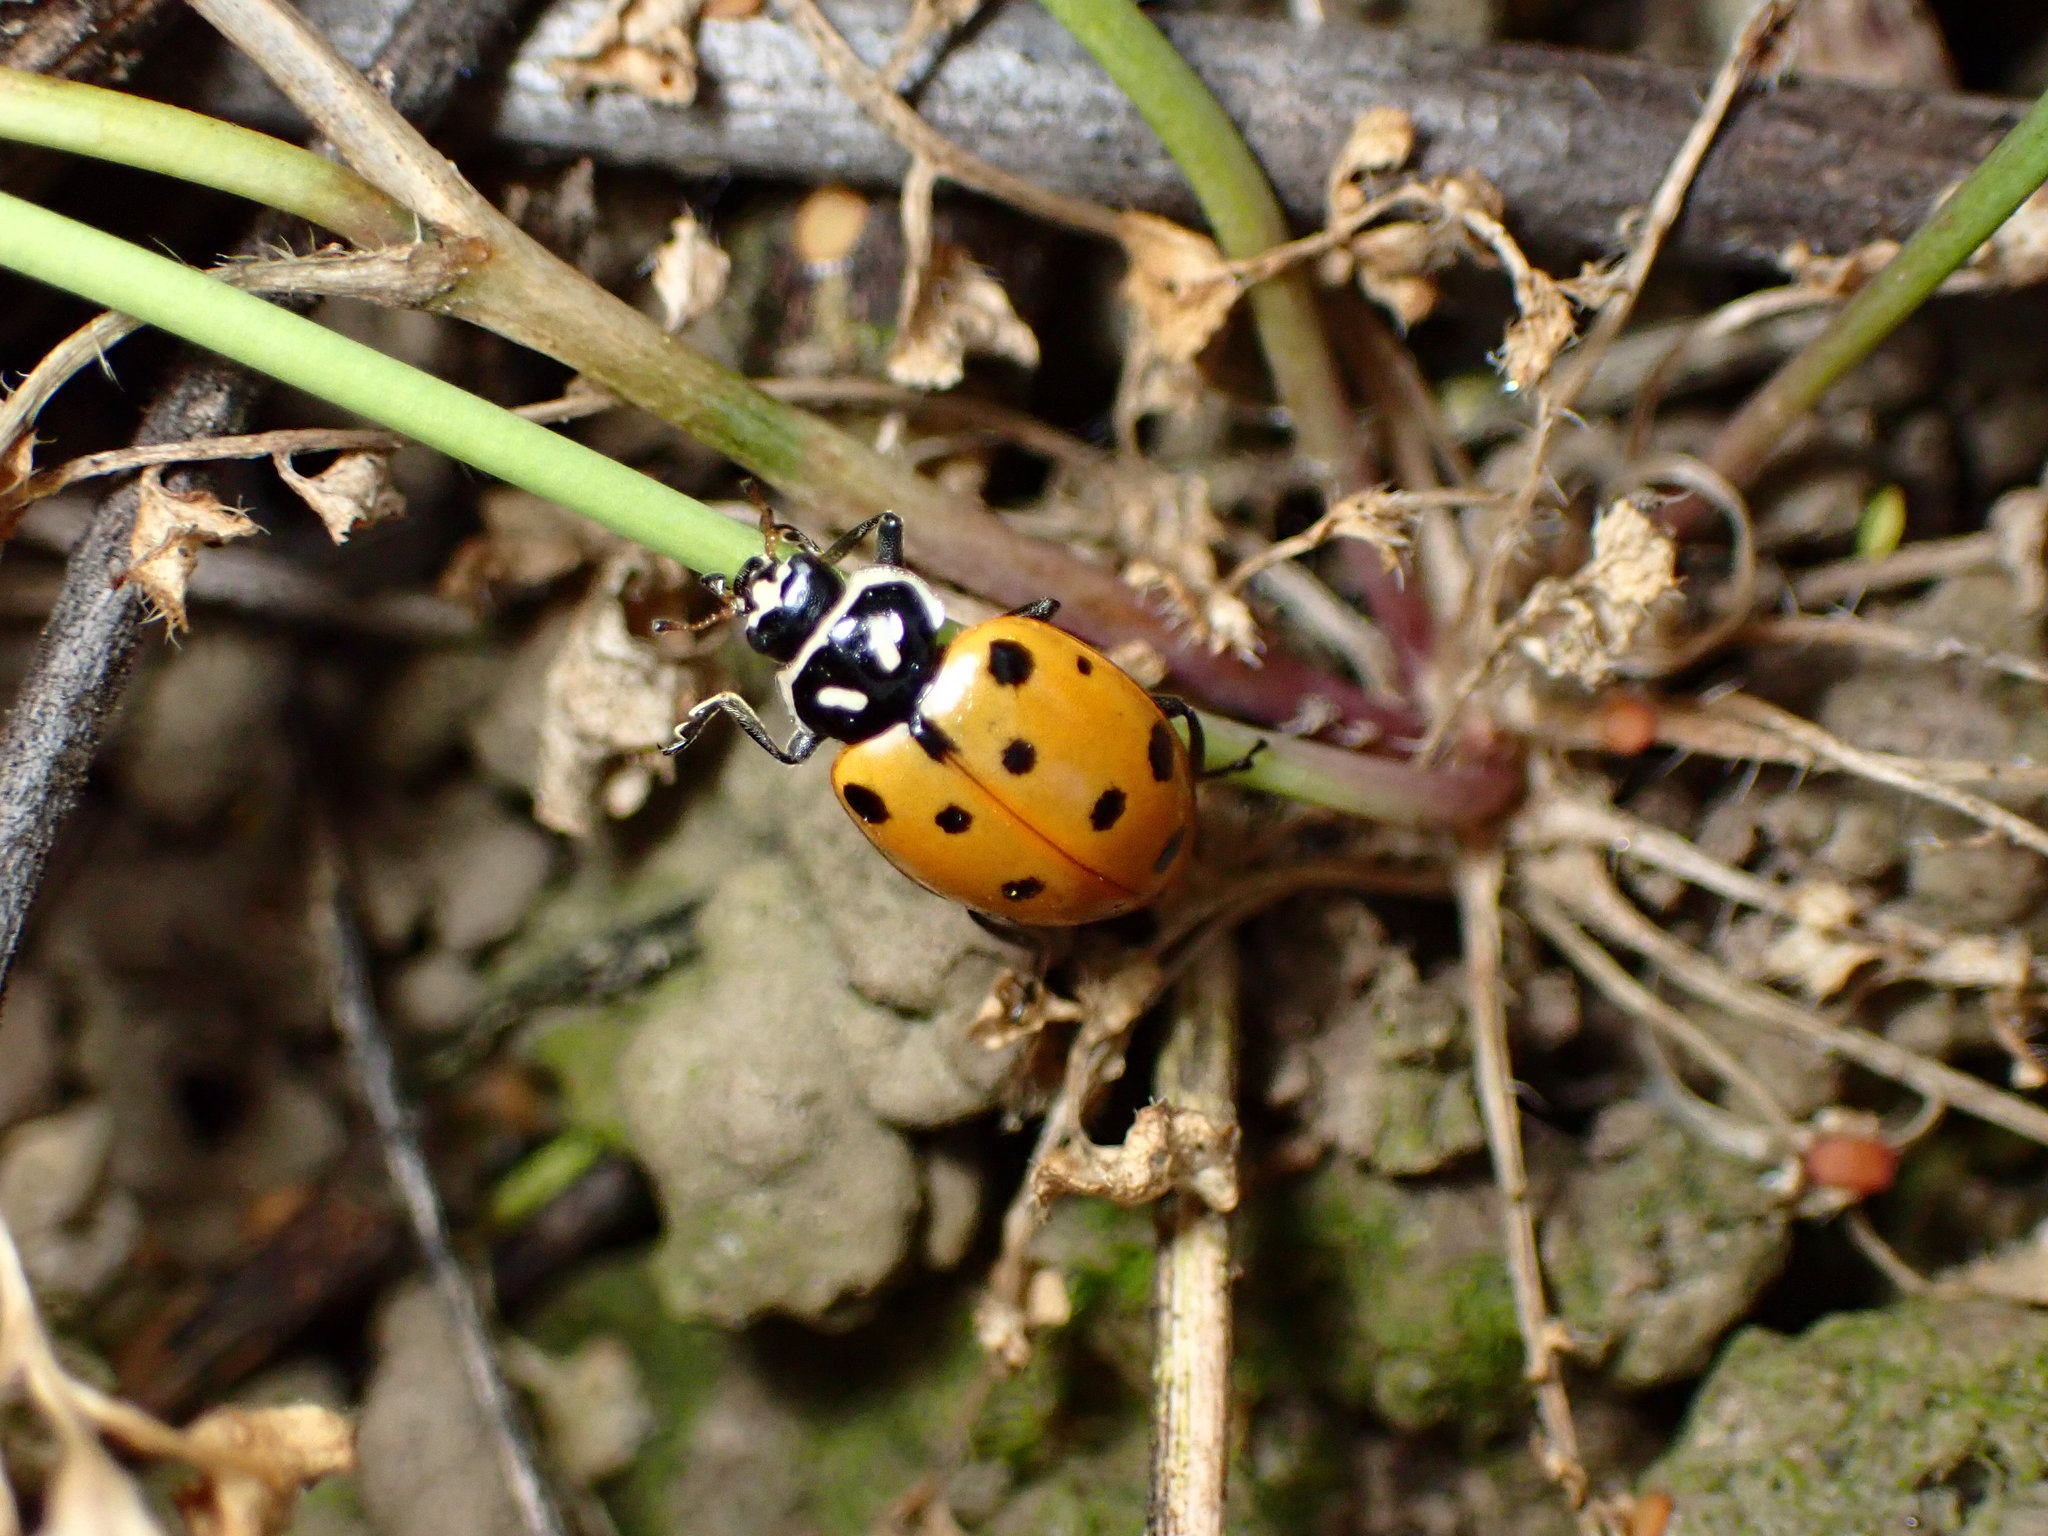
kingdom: Animalia
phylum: Arthropoda
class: Insecta
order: Coleoptera
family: Coccinellidae
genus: Hippodamia
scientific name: Hippodamia convergens
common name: Convergent lady beetle
